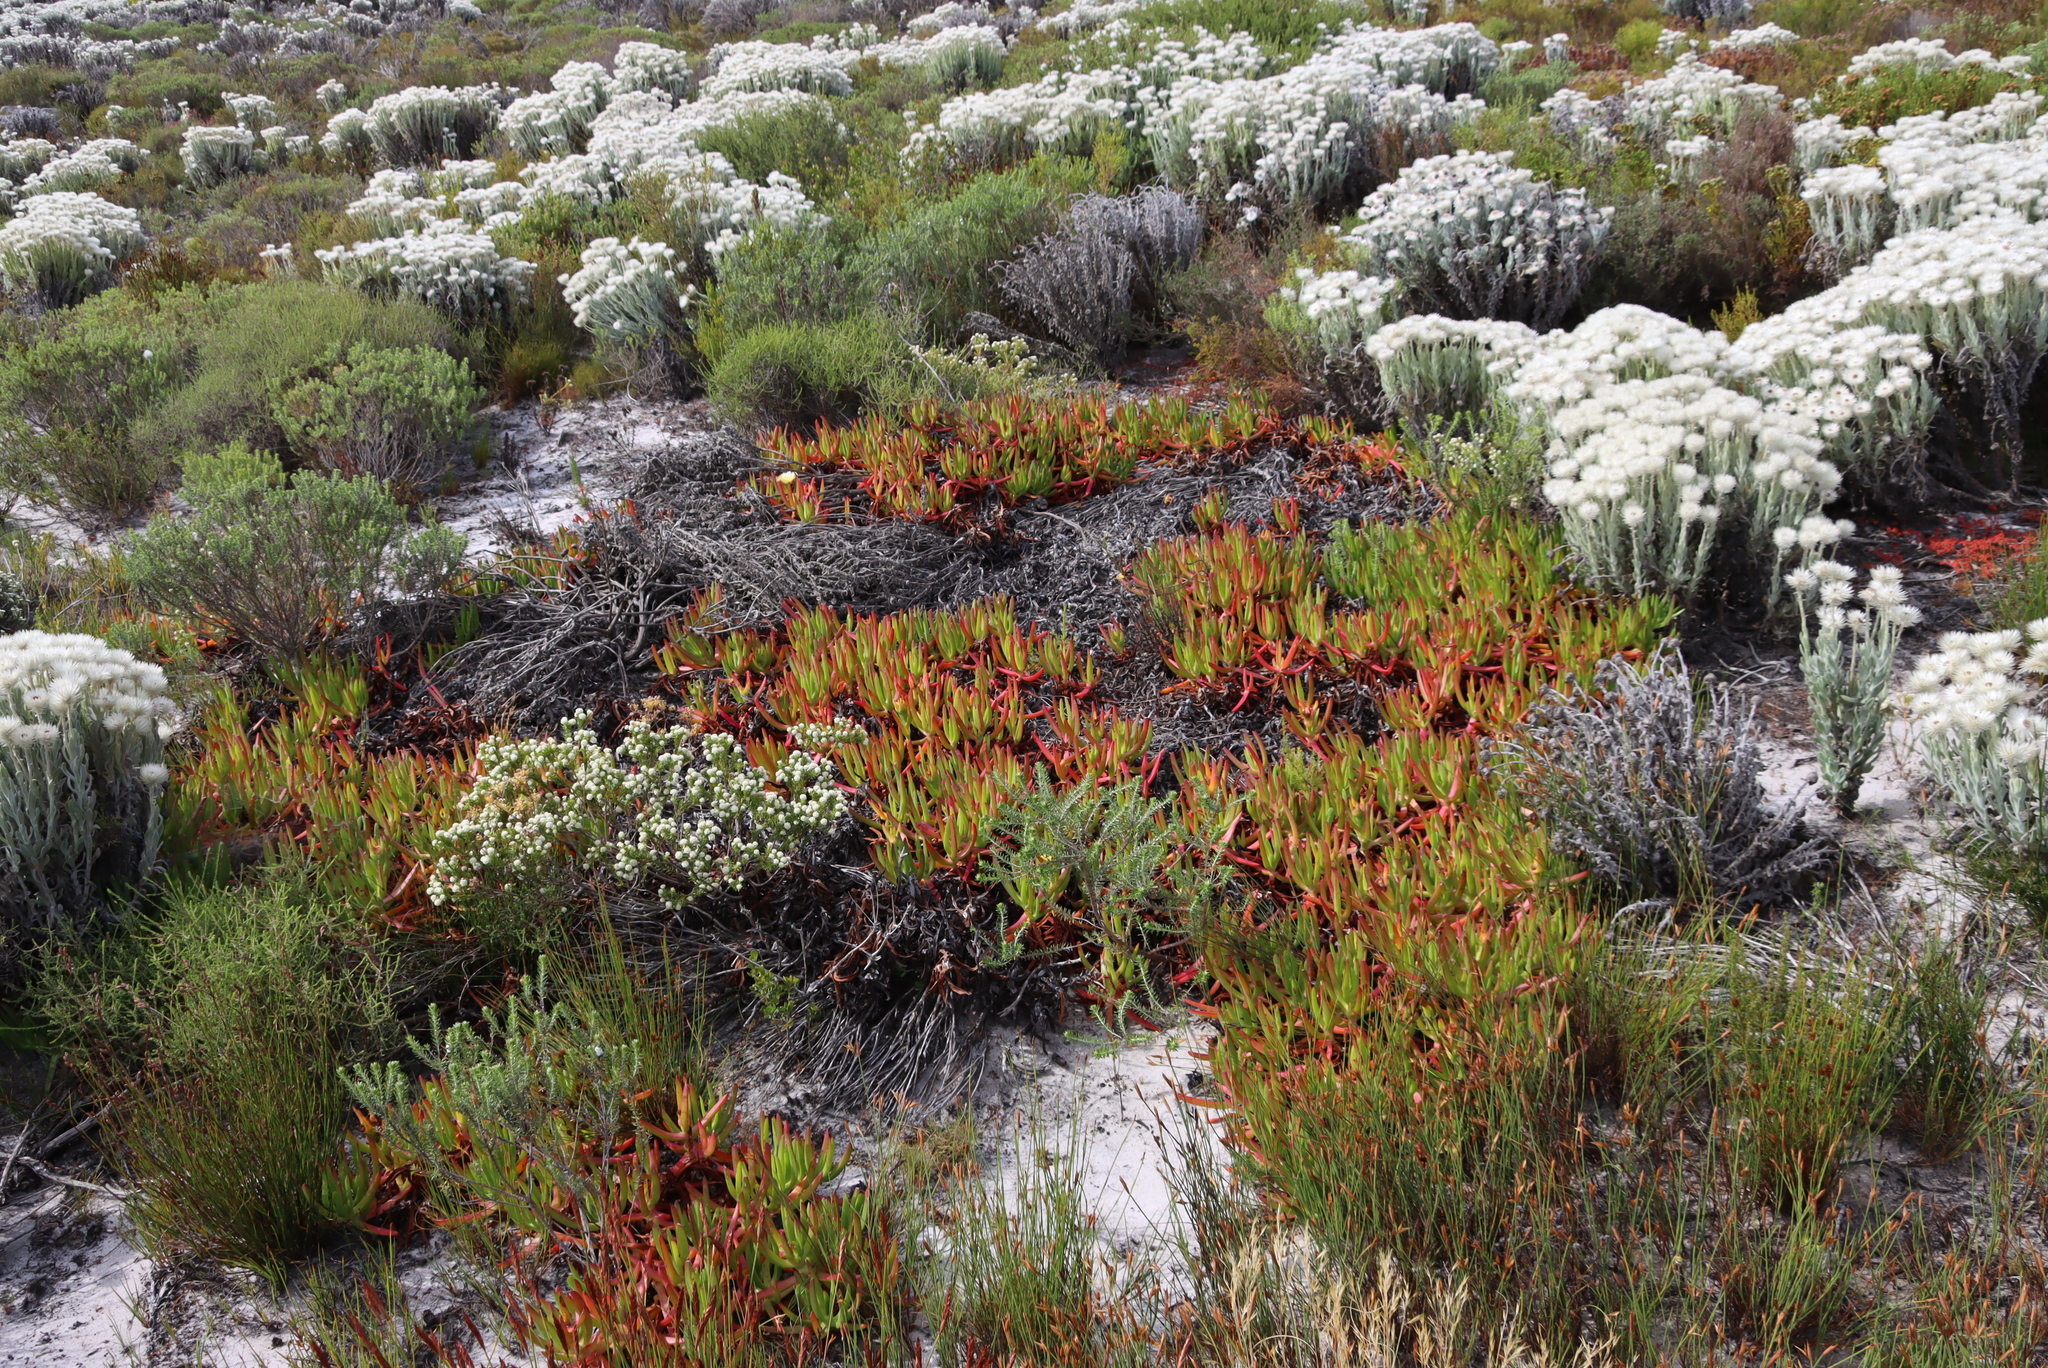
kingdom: Plantae
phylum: Tracheophyta
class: Magnoliopsida
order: Caryophyllales
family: Aizoaceae
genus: Carpobrotus
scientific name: Carpobrotus edulis
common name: Hottentot-fig
